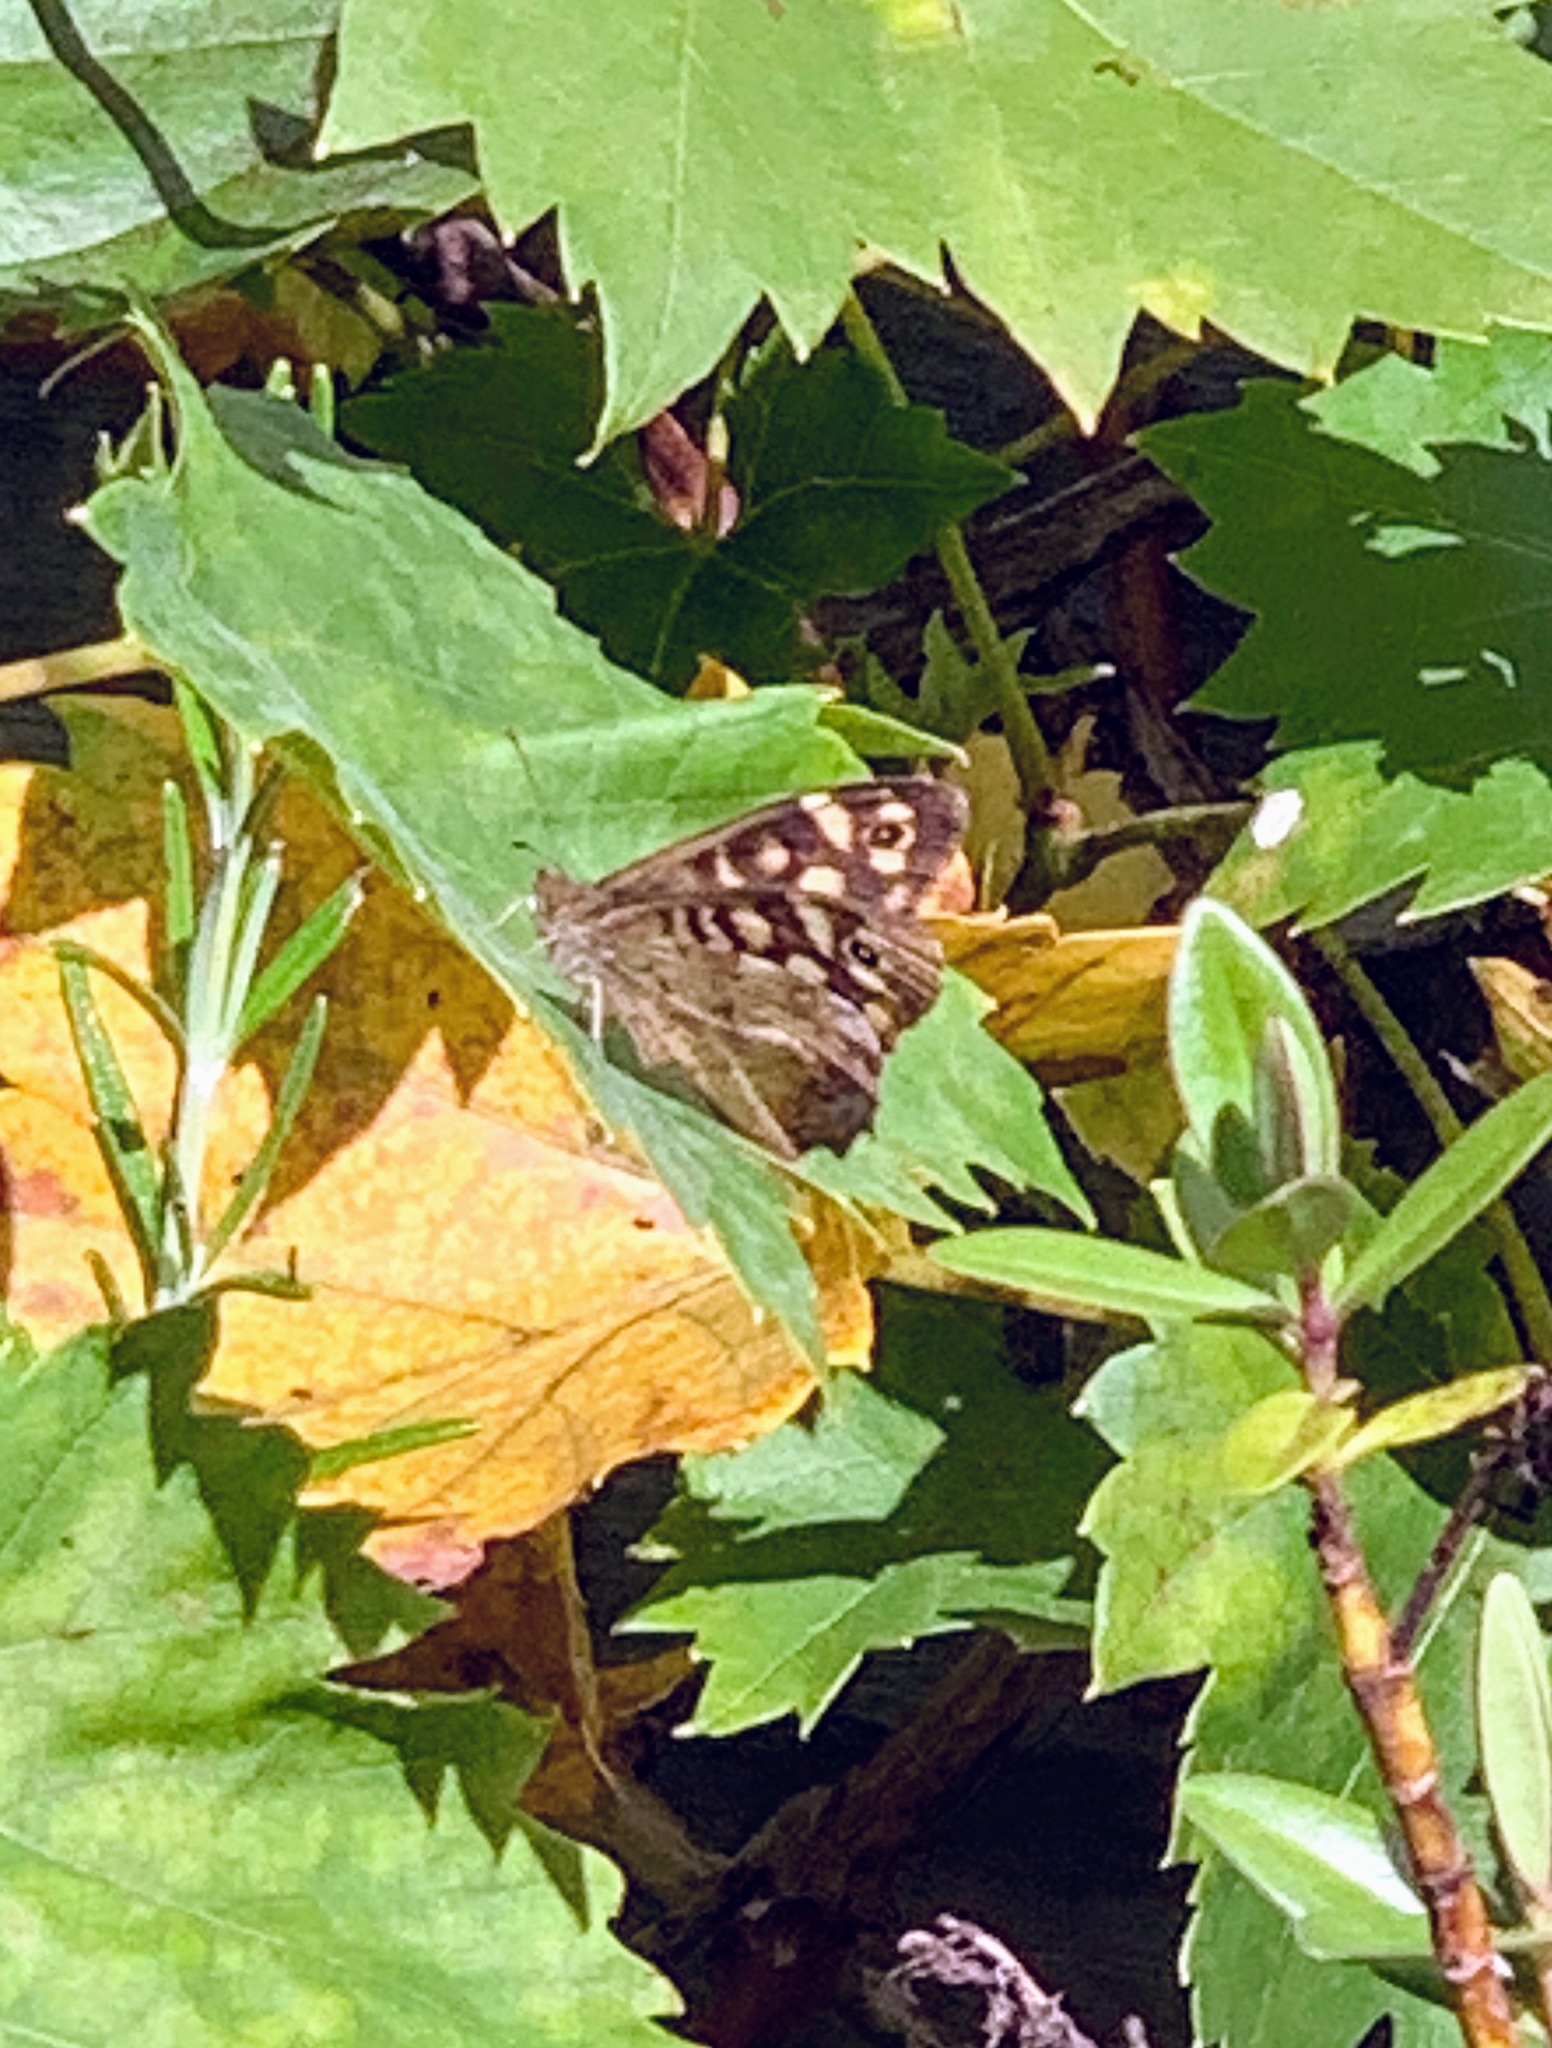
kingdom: Animalia
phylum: Arthropoda
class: Insecta
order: Lepidoptera
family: Nymphalidae
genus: Pararge
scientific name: Pararge aegeria
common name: Speckled wood
